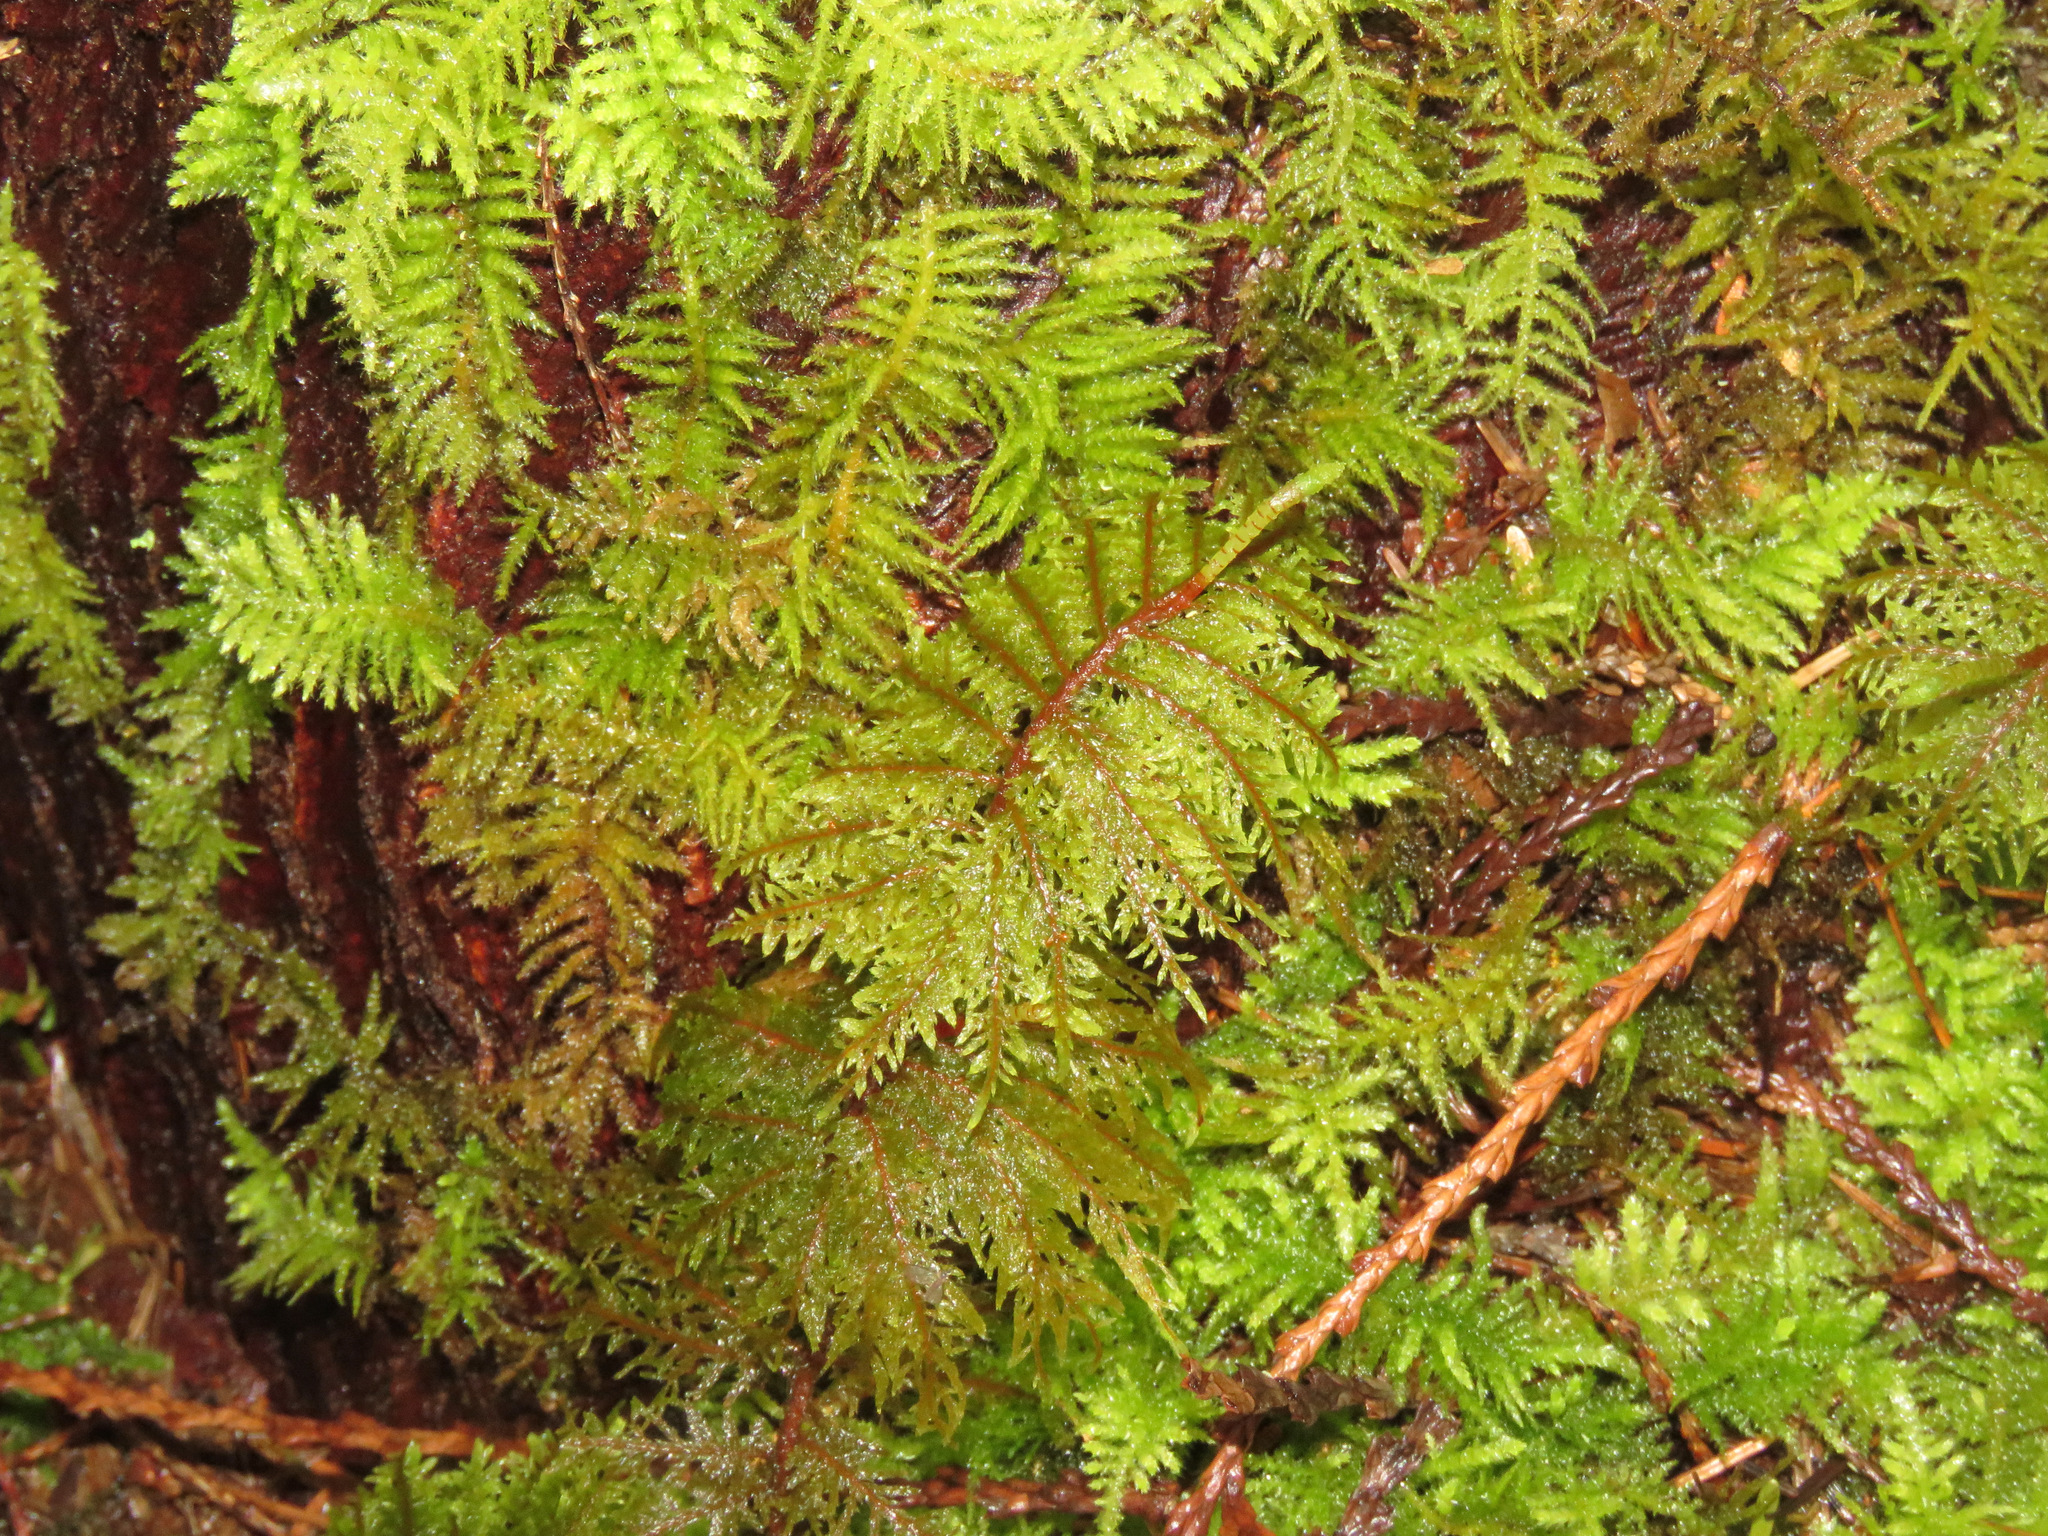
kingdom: Plantae
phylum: Bryophyta
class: Bryopsida
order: Hypnales
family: Hylocomiaceae
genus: Hylocomium
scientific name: Hylocomium splendens
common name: Stairstep moss
